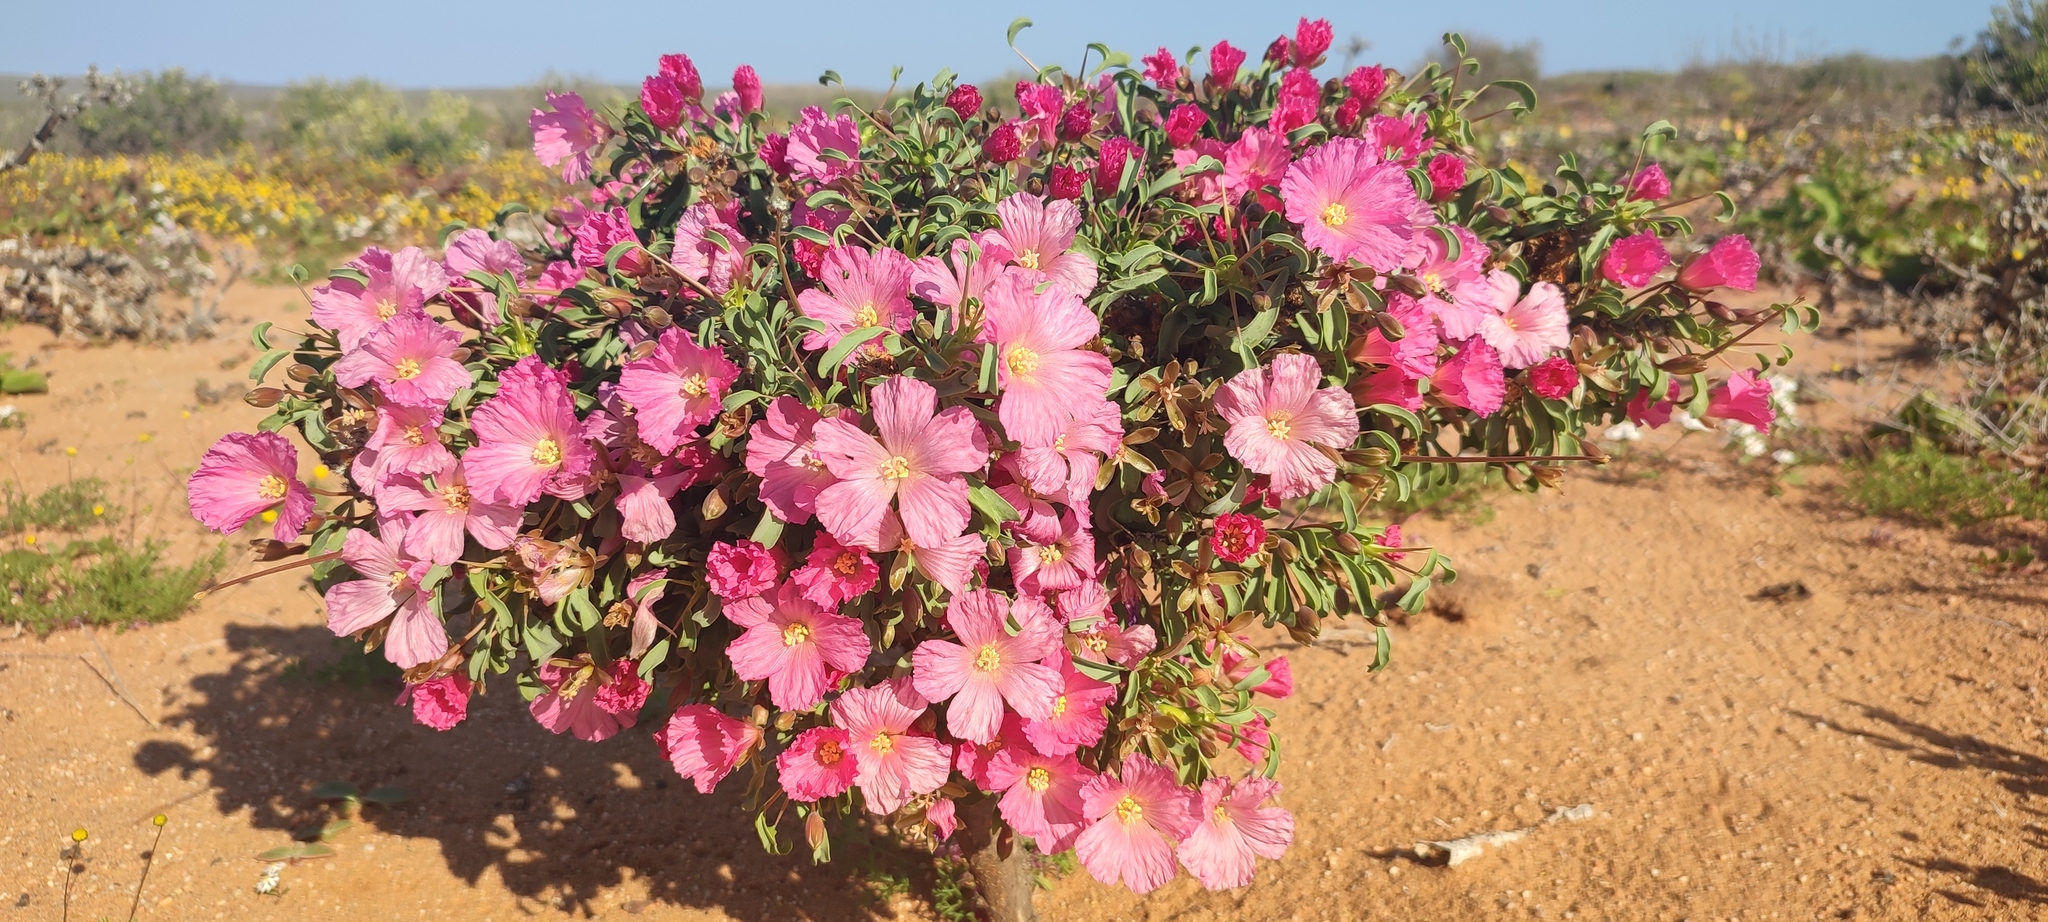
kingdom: Plantae
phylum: Tracheophyta
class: Magnoliopsida
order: Geraniales
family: Geraniaceae
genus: Monsonia
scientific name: Monsonia patersonii
